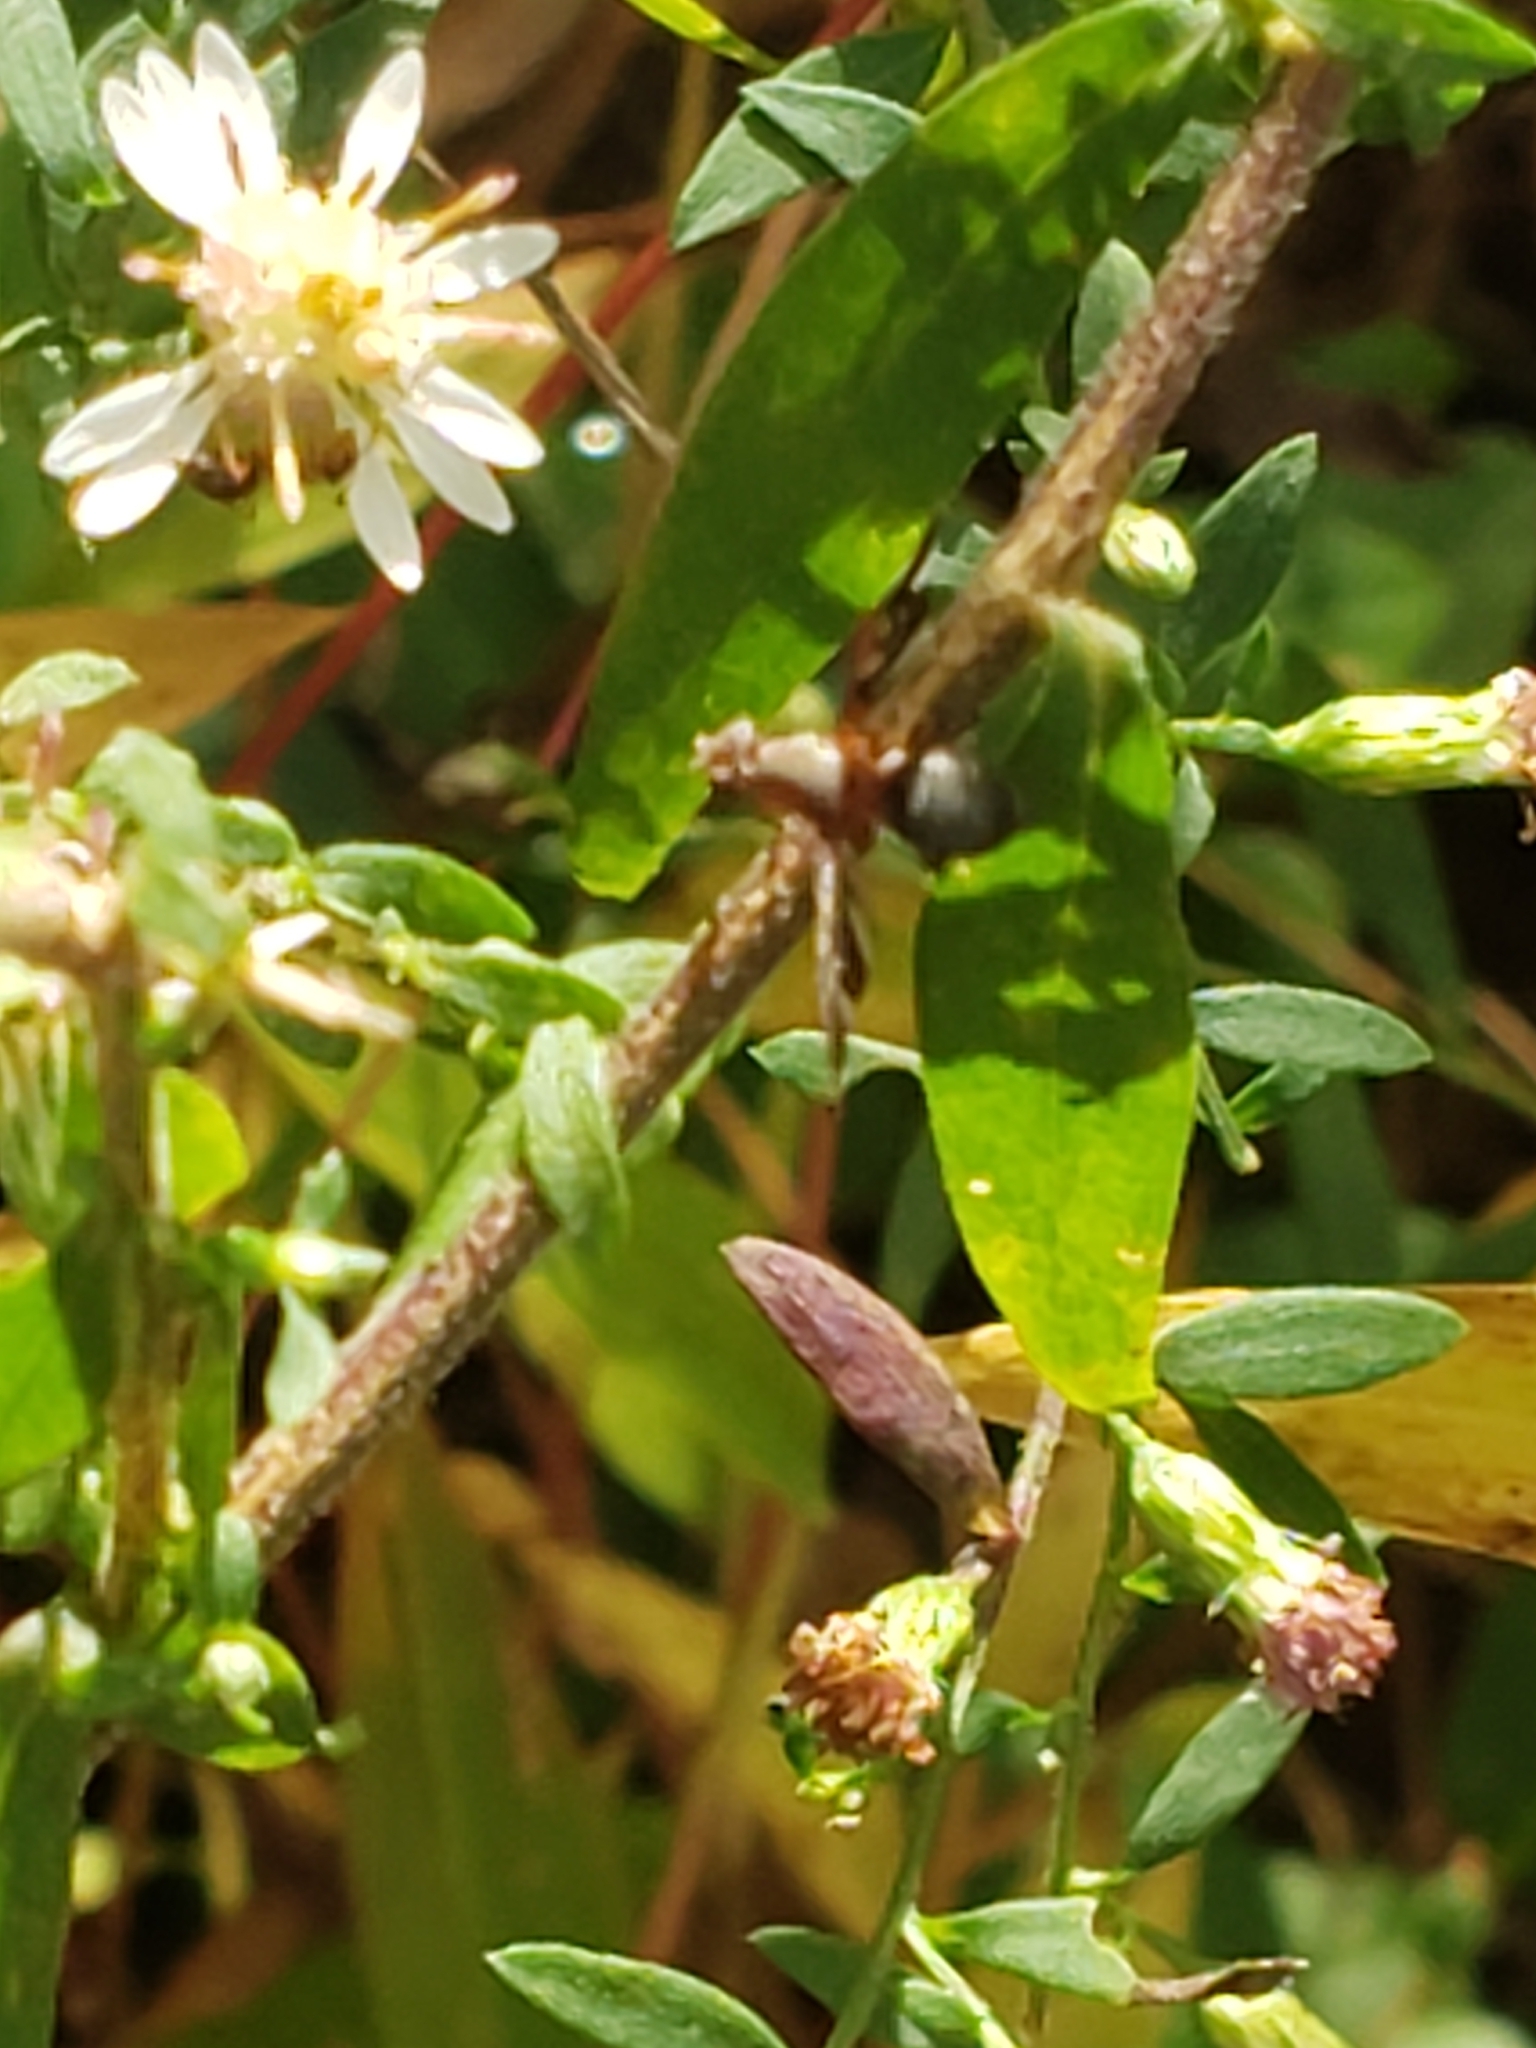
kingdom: Animalia
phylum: Arthropoda
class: Insecta
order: Diptera
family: Ulidiidae
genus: Delphinia
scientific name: Delphinia picta
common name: Common picture-winged fly
